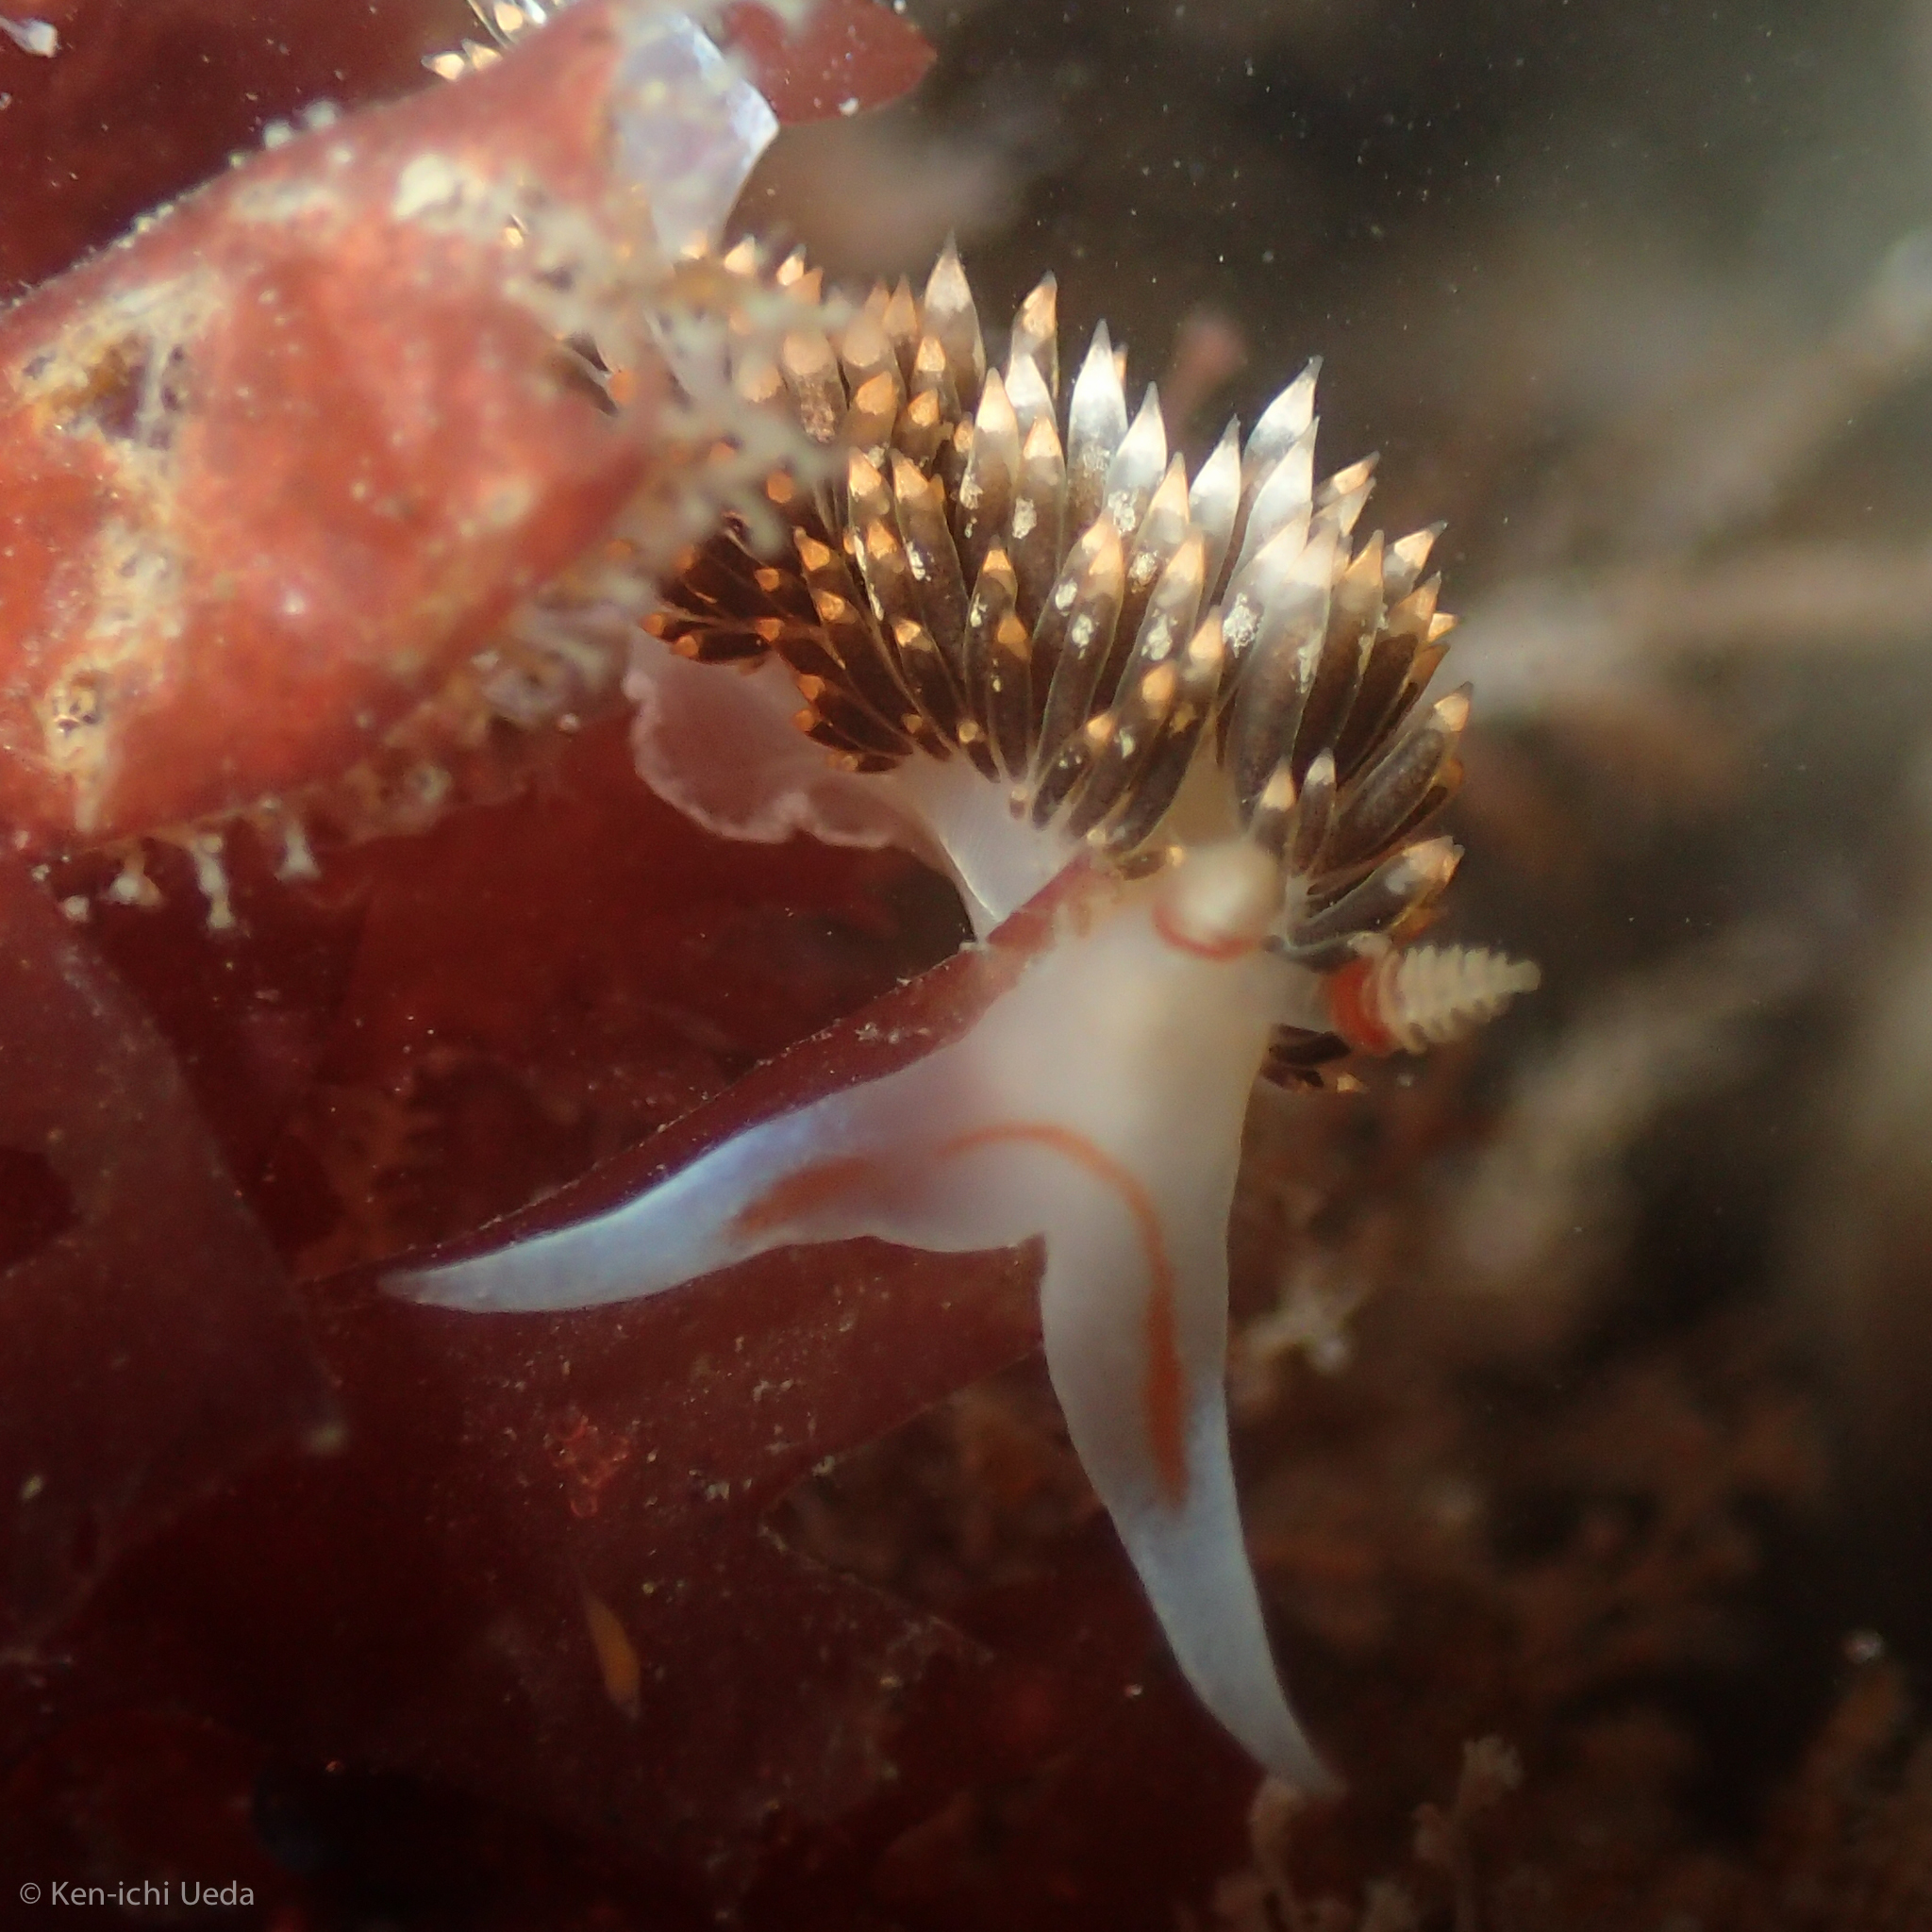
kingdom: Animalia
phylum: Mollusca
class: Gastropoda
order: Nudibranchia
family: Facelinidae
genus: Phidiana
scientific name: Phidiana hiltoni
